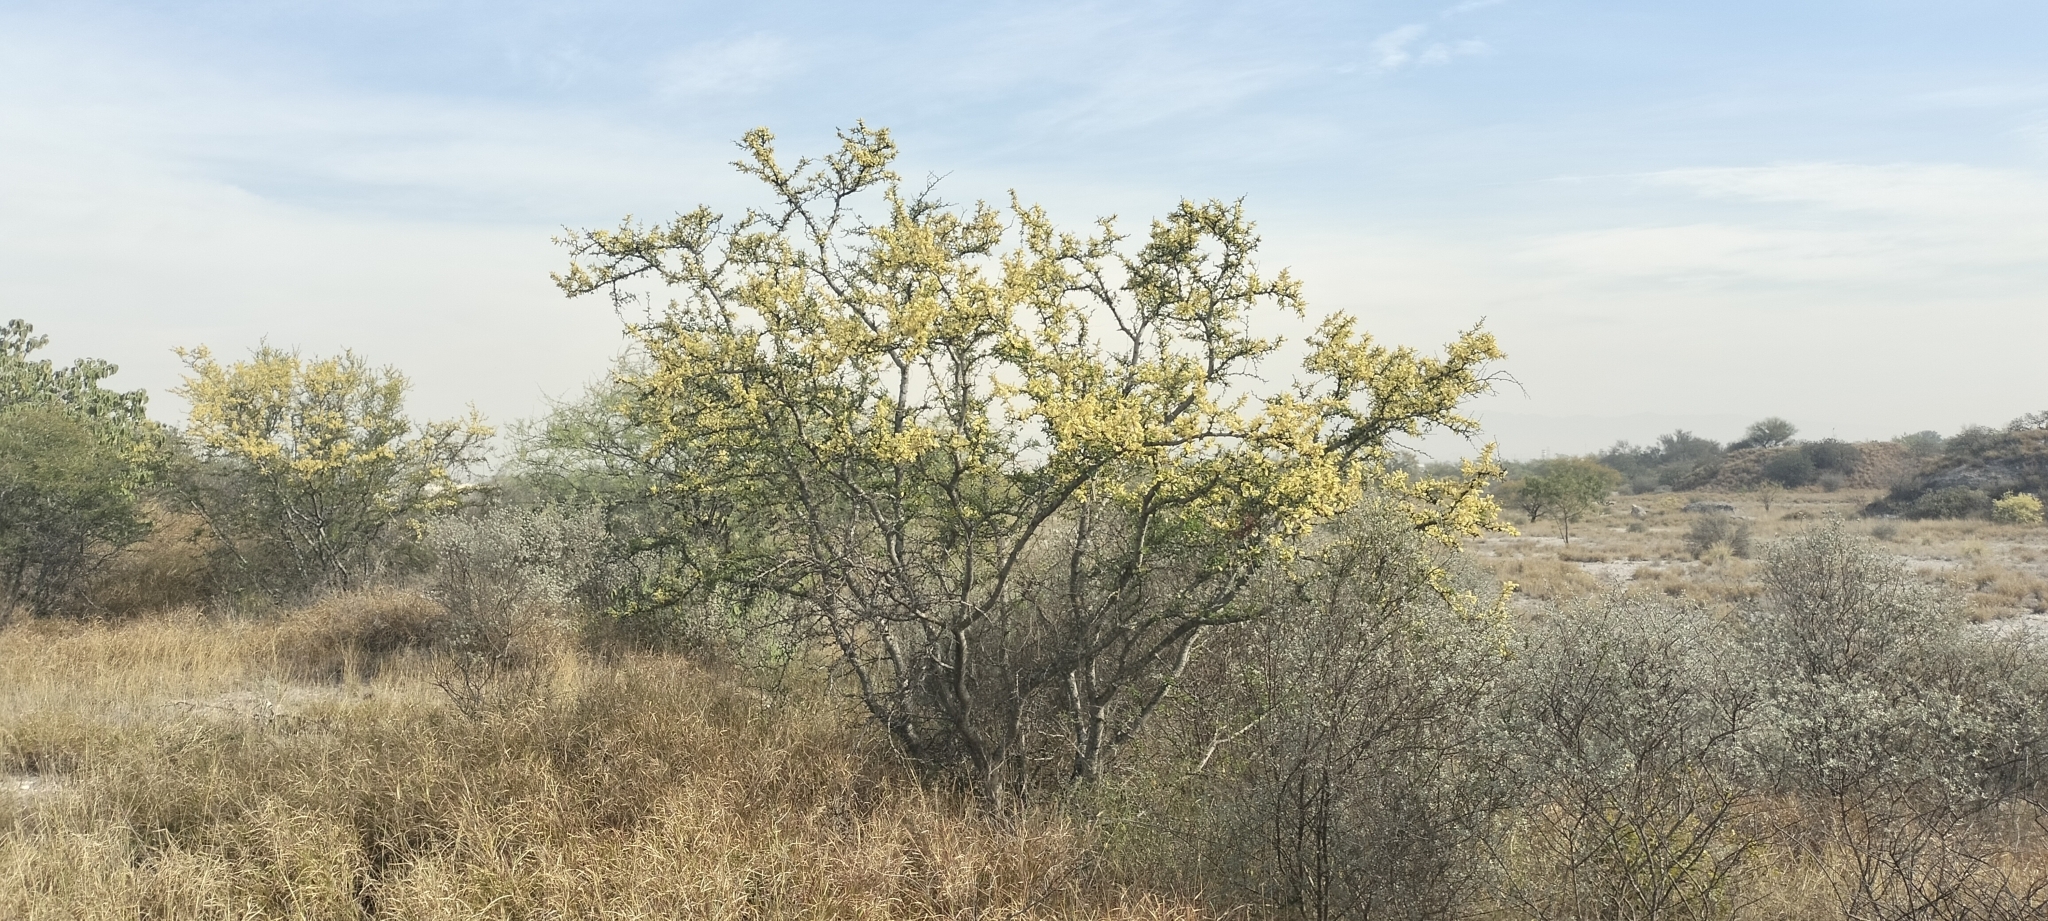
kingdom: Plantae
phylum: Tracheophyta
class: Magnoliopsida
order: Fabales
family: Fabaceae
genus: Vachellia
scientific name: Vachellia rigidula
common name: Blackbrush
